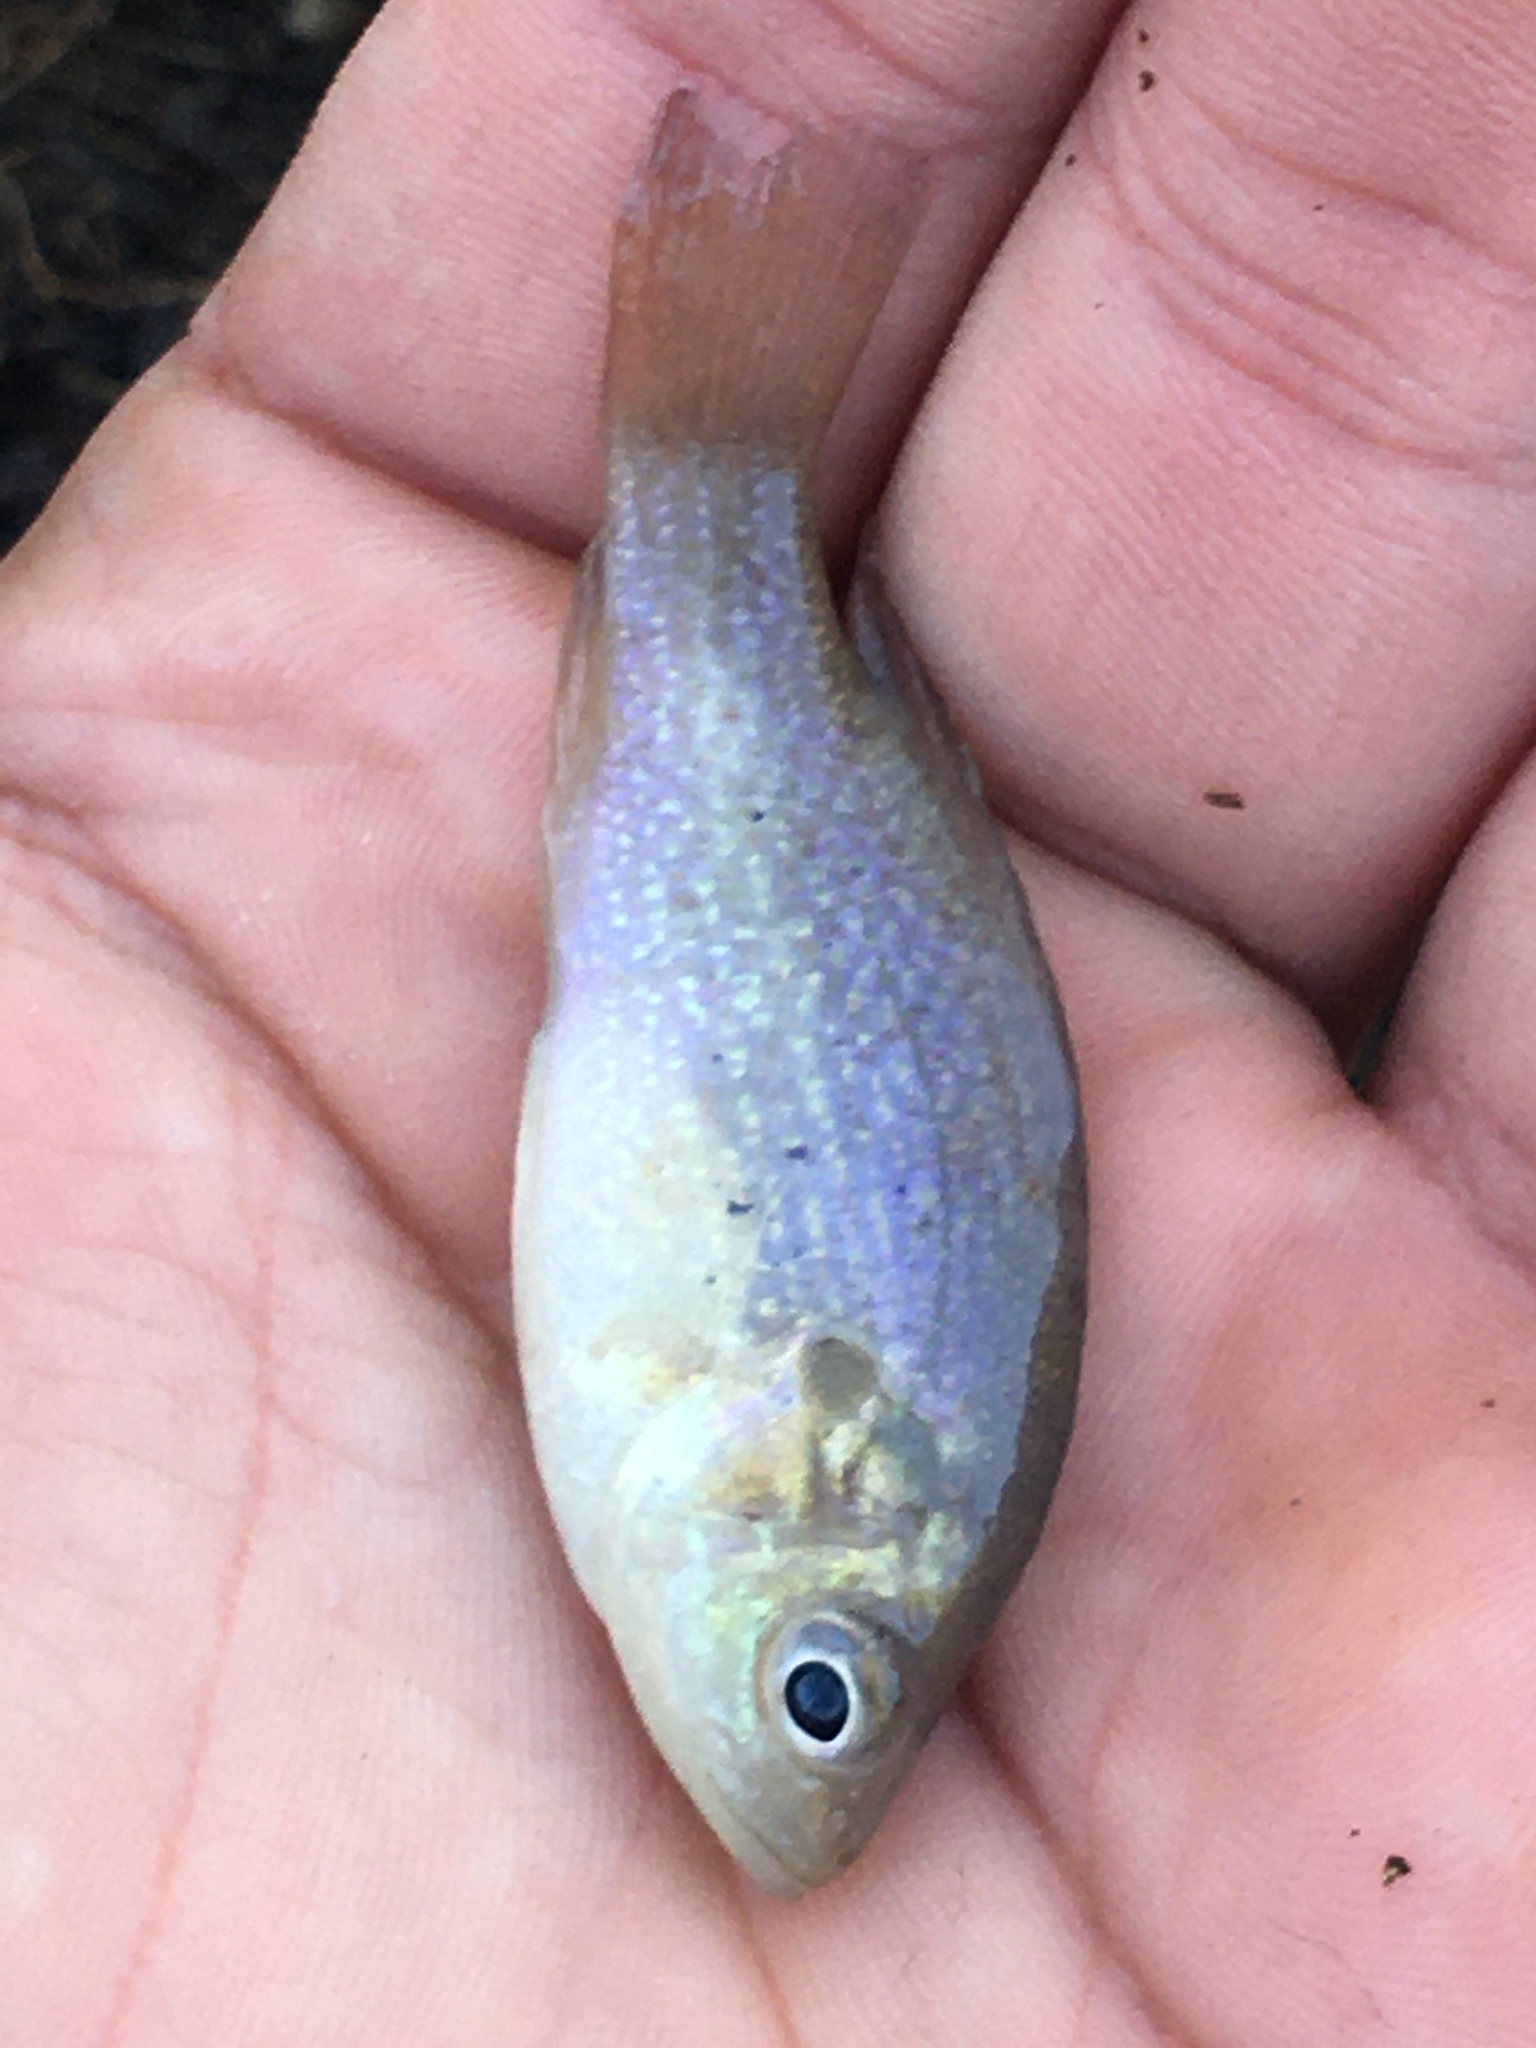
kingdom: Animalia
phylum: Chordata
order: Perciformes
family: Centrarchidae
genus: Lepomis
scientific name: Lepomis cyanellus
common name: Green sunfish
